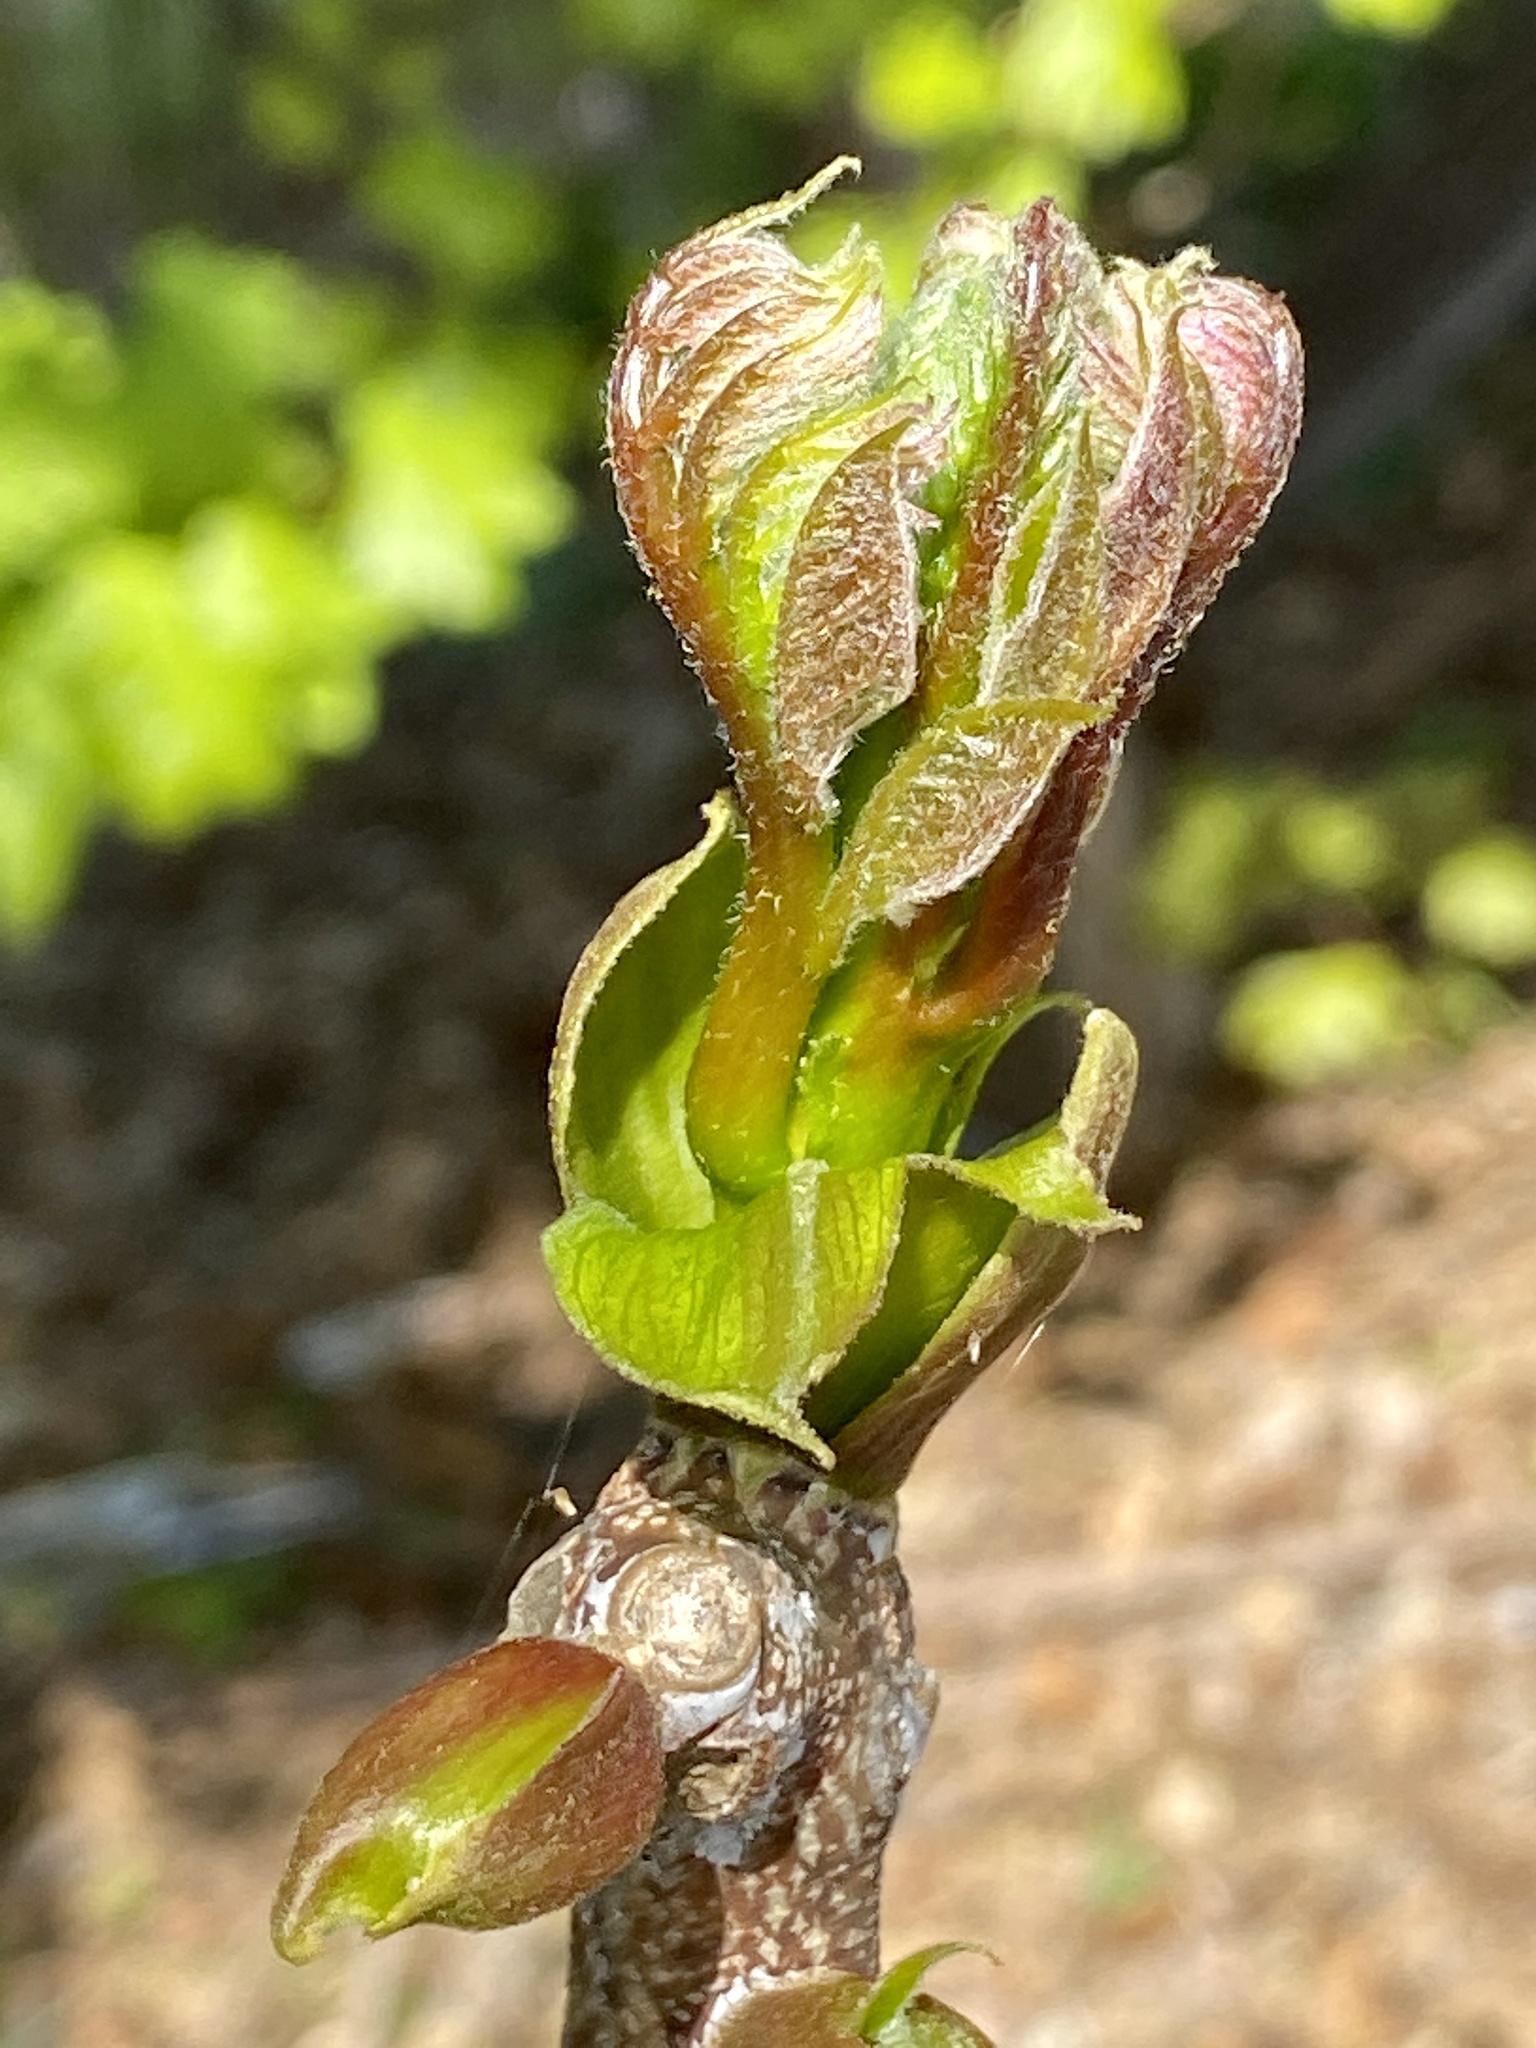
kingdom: Plantae
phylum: Tracheophyta
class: Magnoliopsida
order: Fagales
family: Juglandaceae
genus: Juglans
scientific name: Juglans nigra
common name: Black walnut
